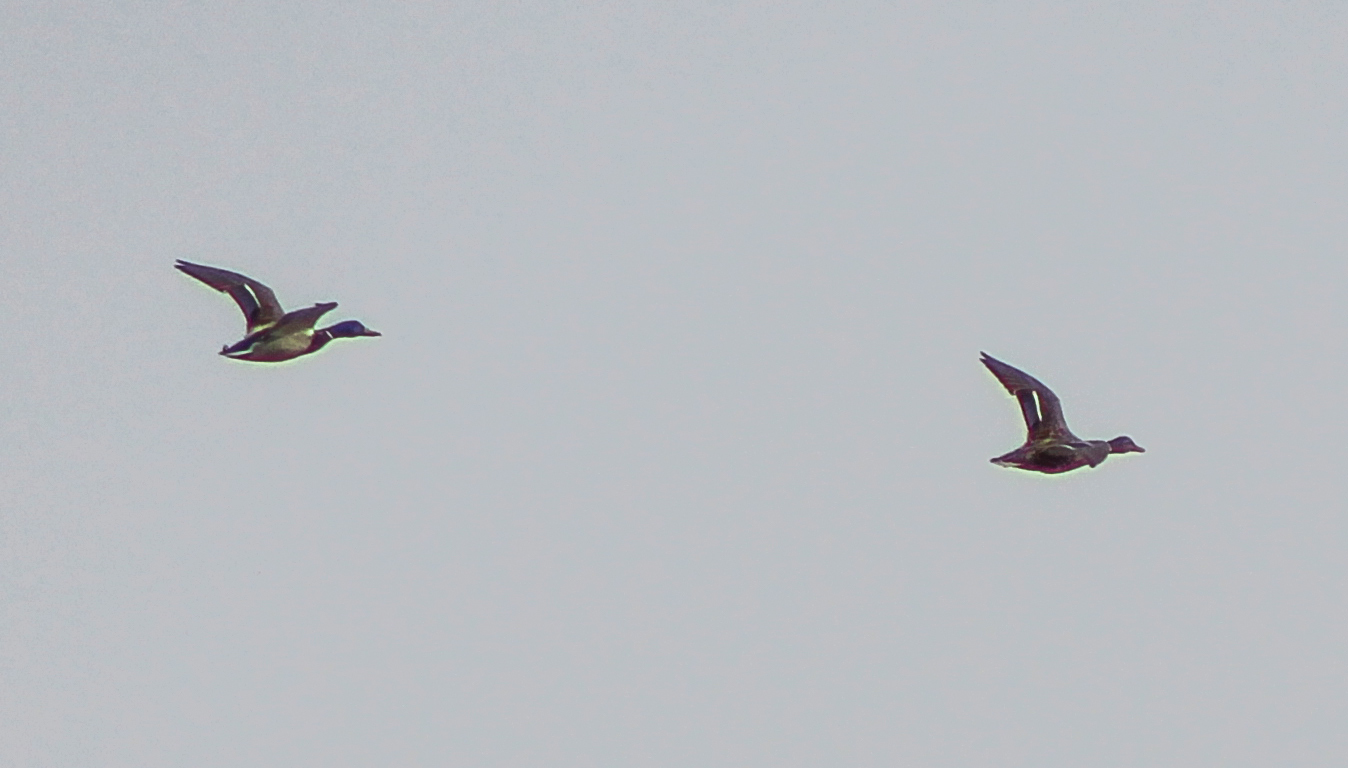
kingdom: Animalia
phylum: Chordata
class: Aves
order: Anseriformes
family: Anatidae
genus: Anas
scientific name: Anas platyrhynchos
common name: Mallard
